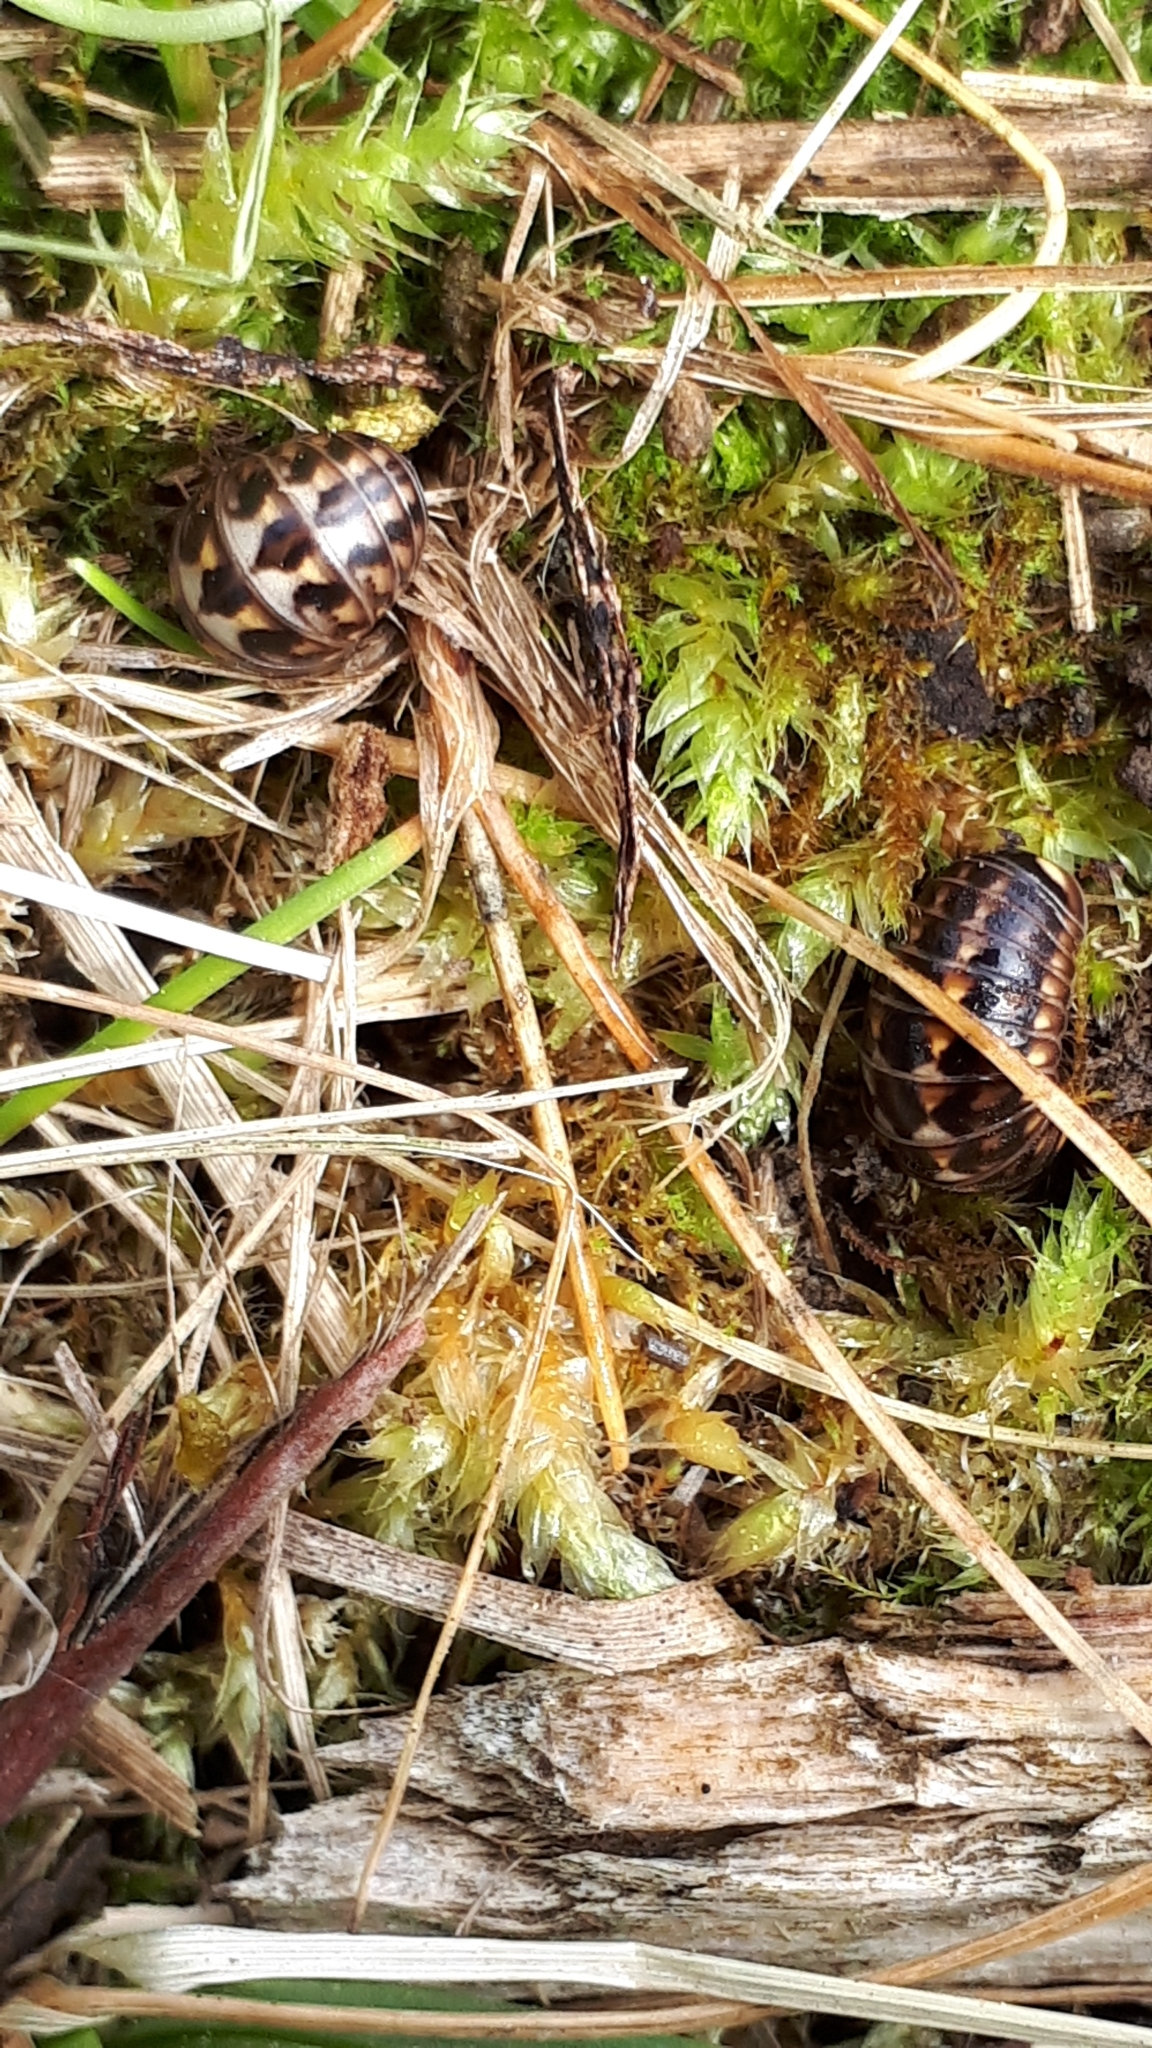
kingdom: Animalia
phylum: Arthropoda
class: Diplopoda
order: Glomerida
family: Glomeridae
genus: Glomeris
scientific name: Glomeris hexasticha
